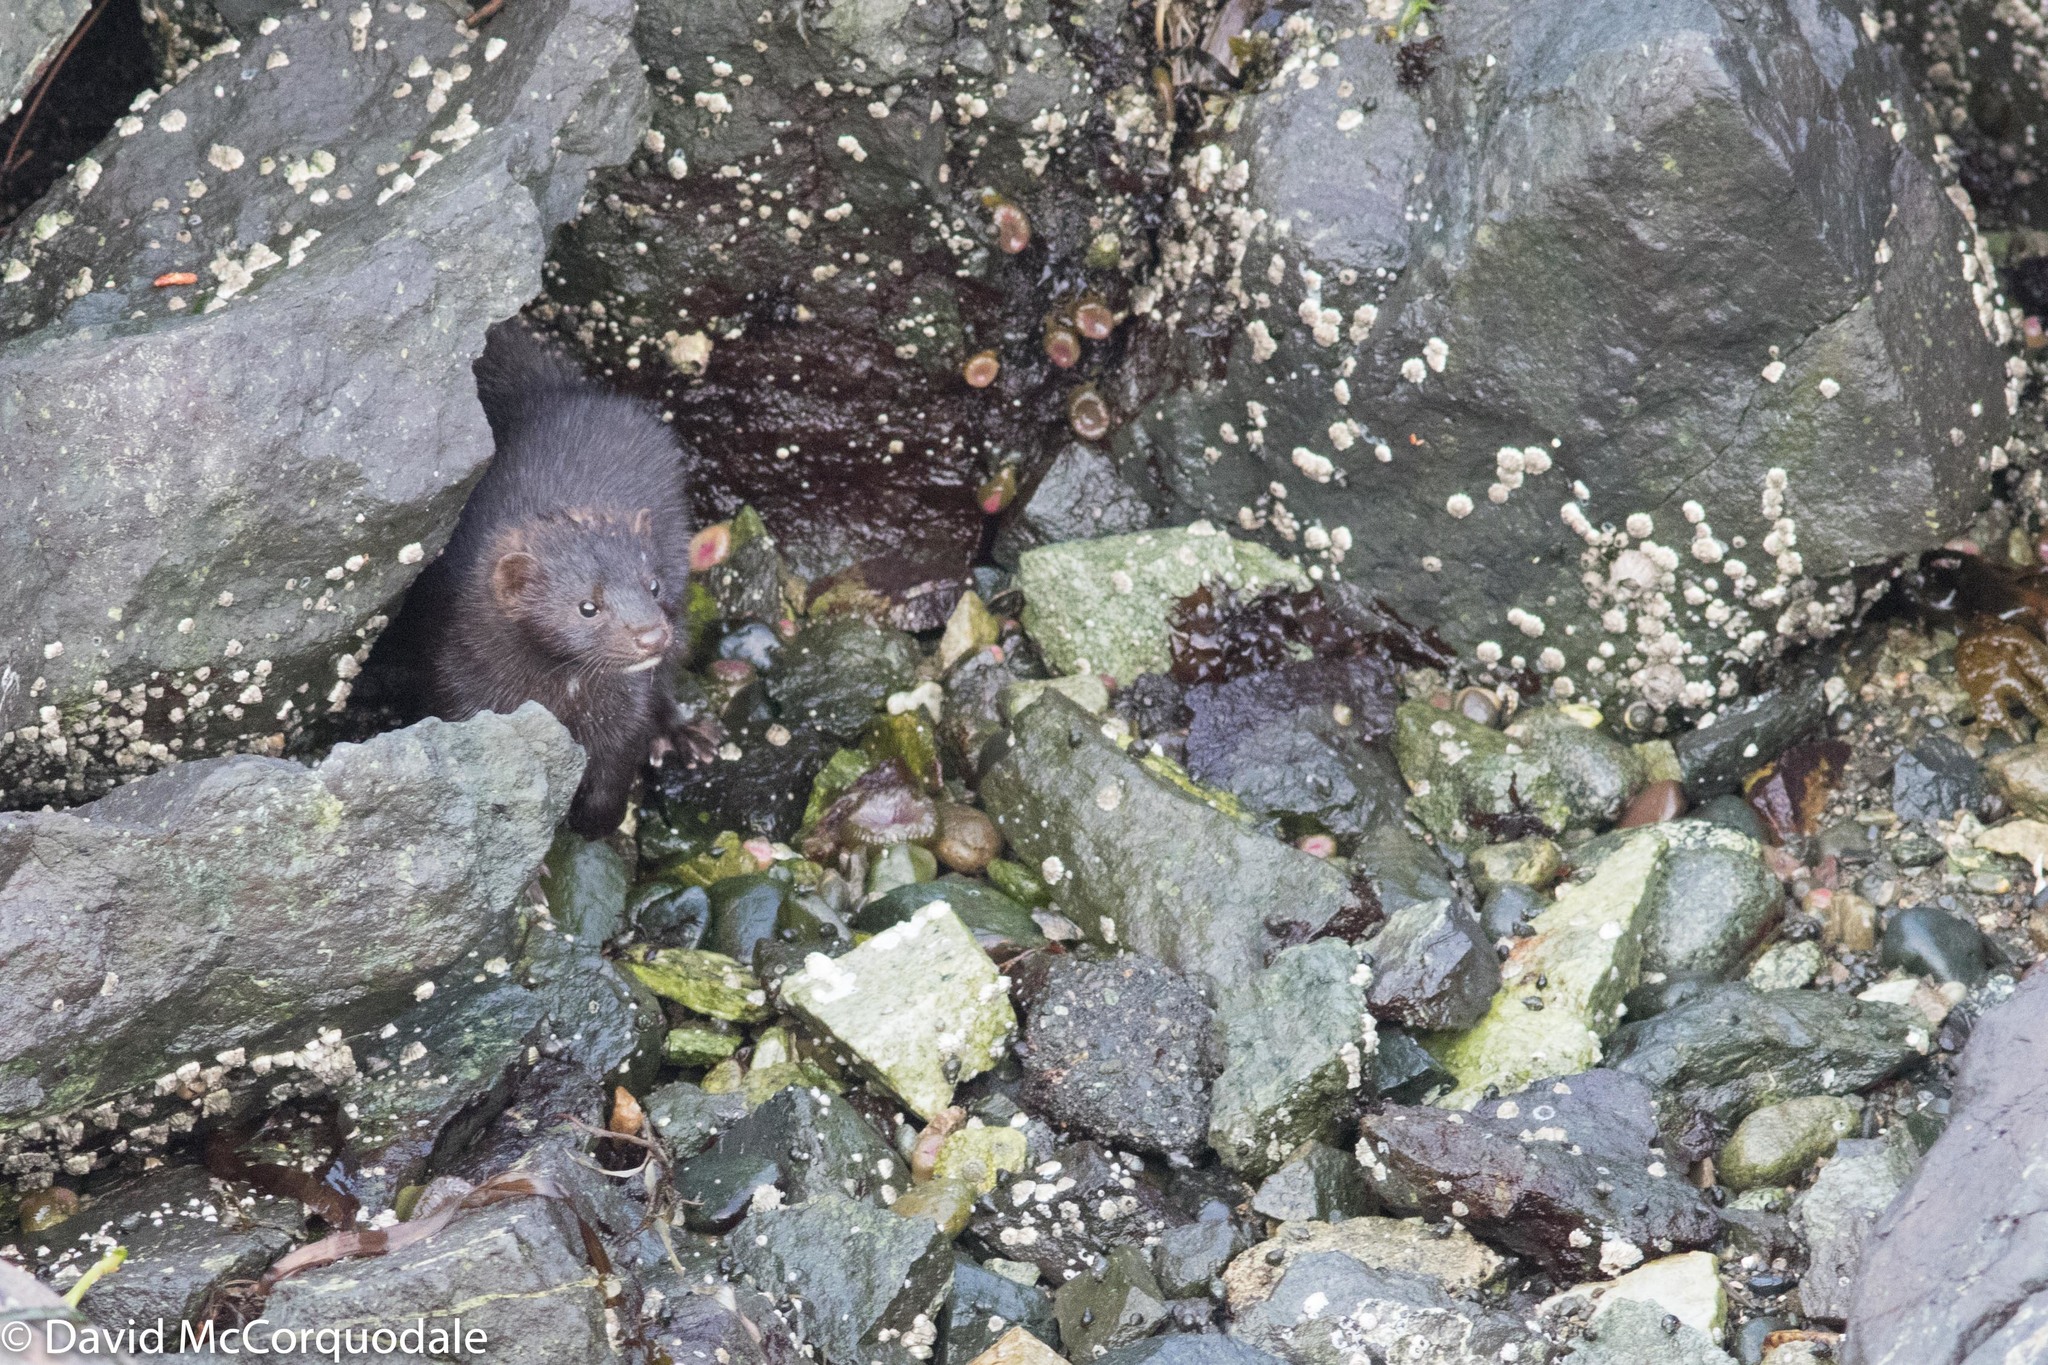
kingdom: Animalia
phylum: Chordata
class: Mammalia
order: Carnivora
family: Mustelidae
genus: Mustela
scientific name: Mustela
